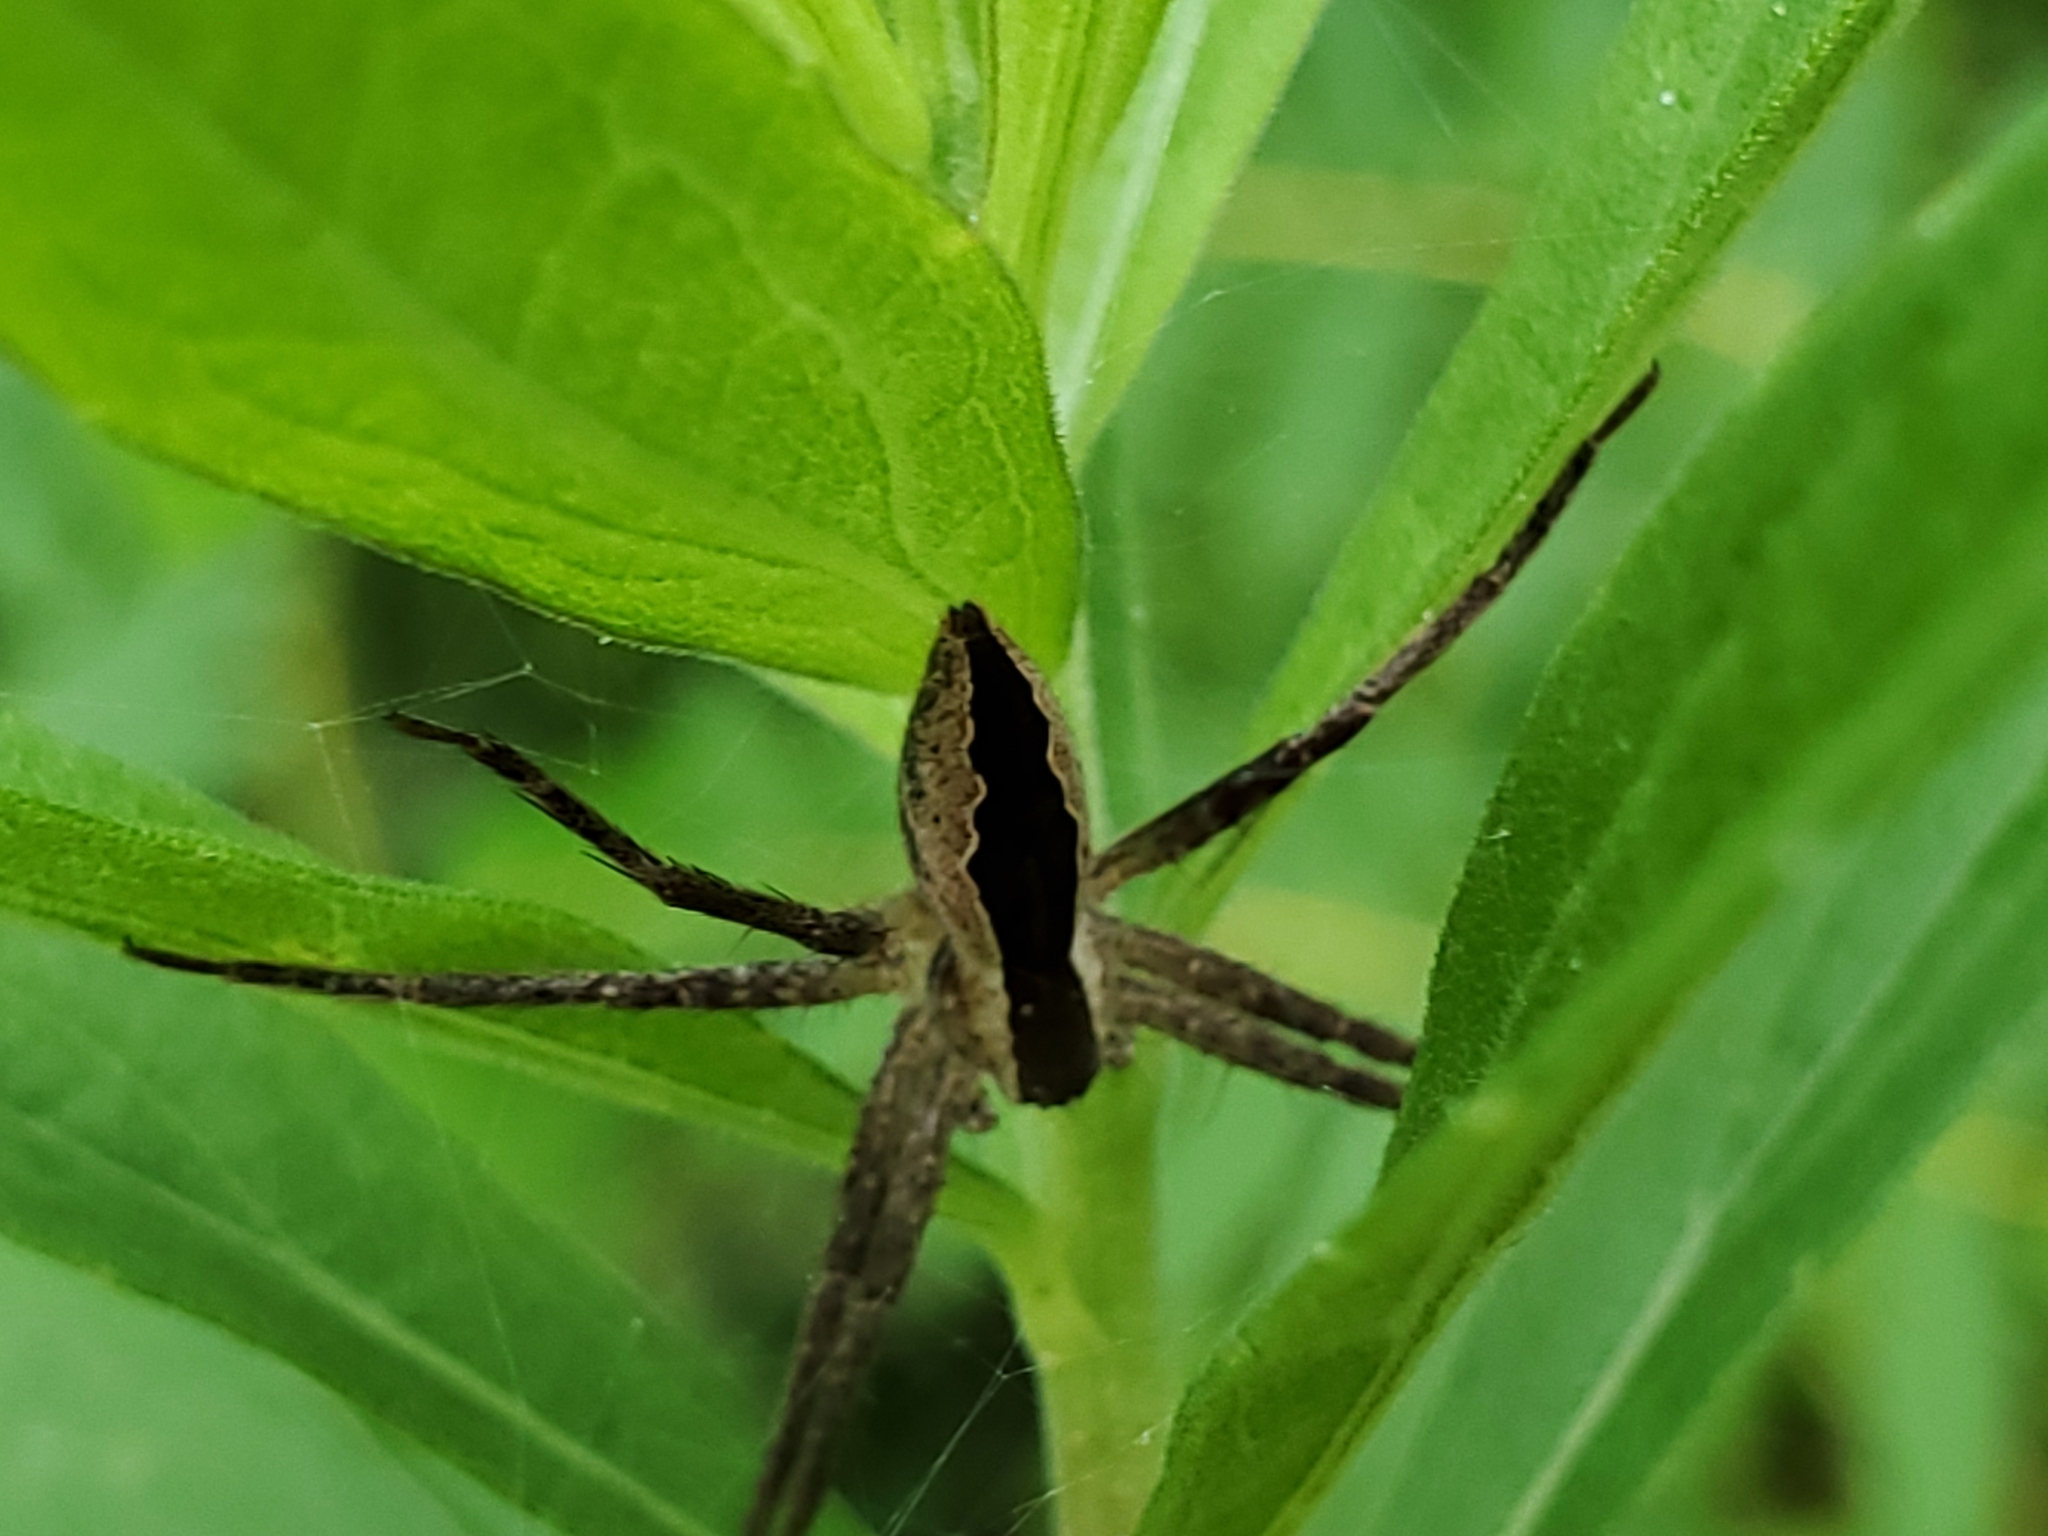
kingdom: Animalia
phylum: Arthropoda
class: Arachnida
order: Araneae
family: Pisauridae
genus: Pisaurina
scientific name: Pisaurina mira
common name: American nursery web spider
